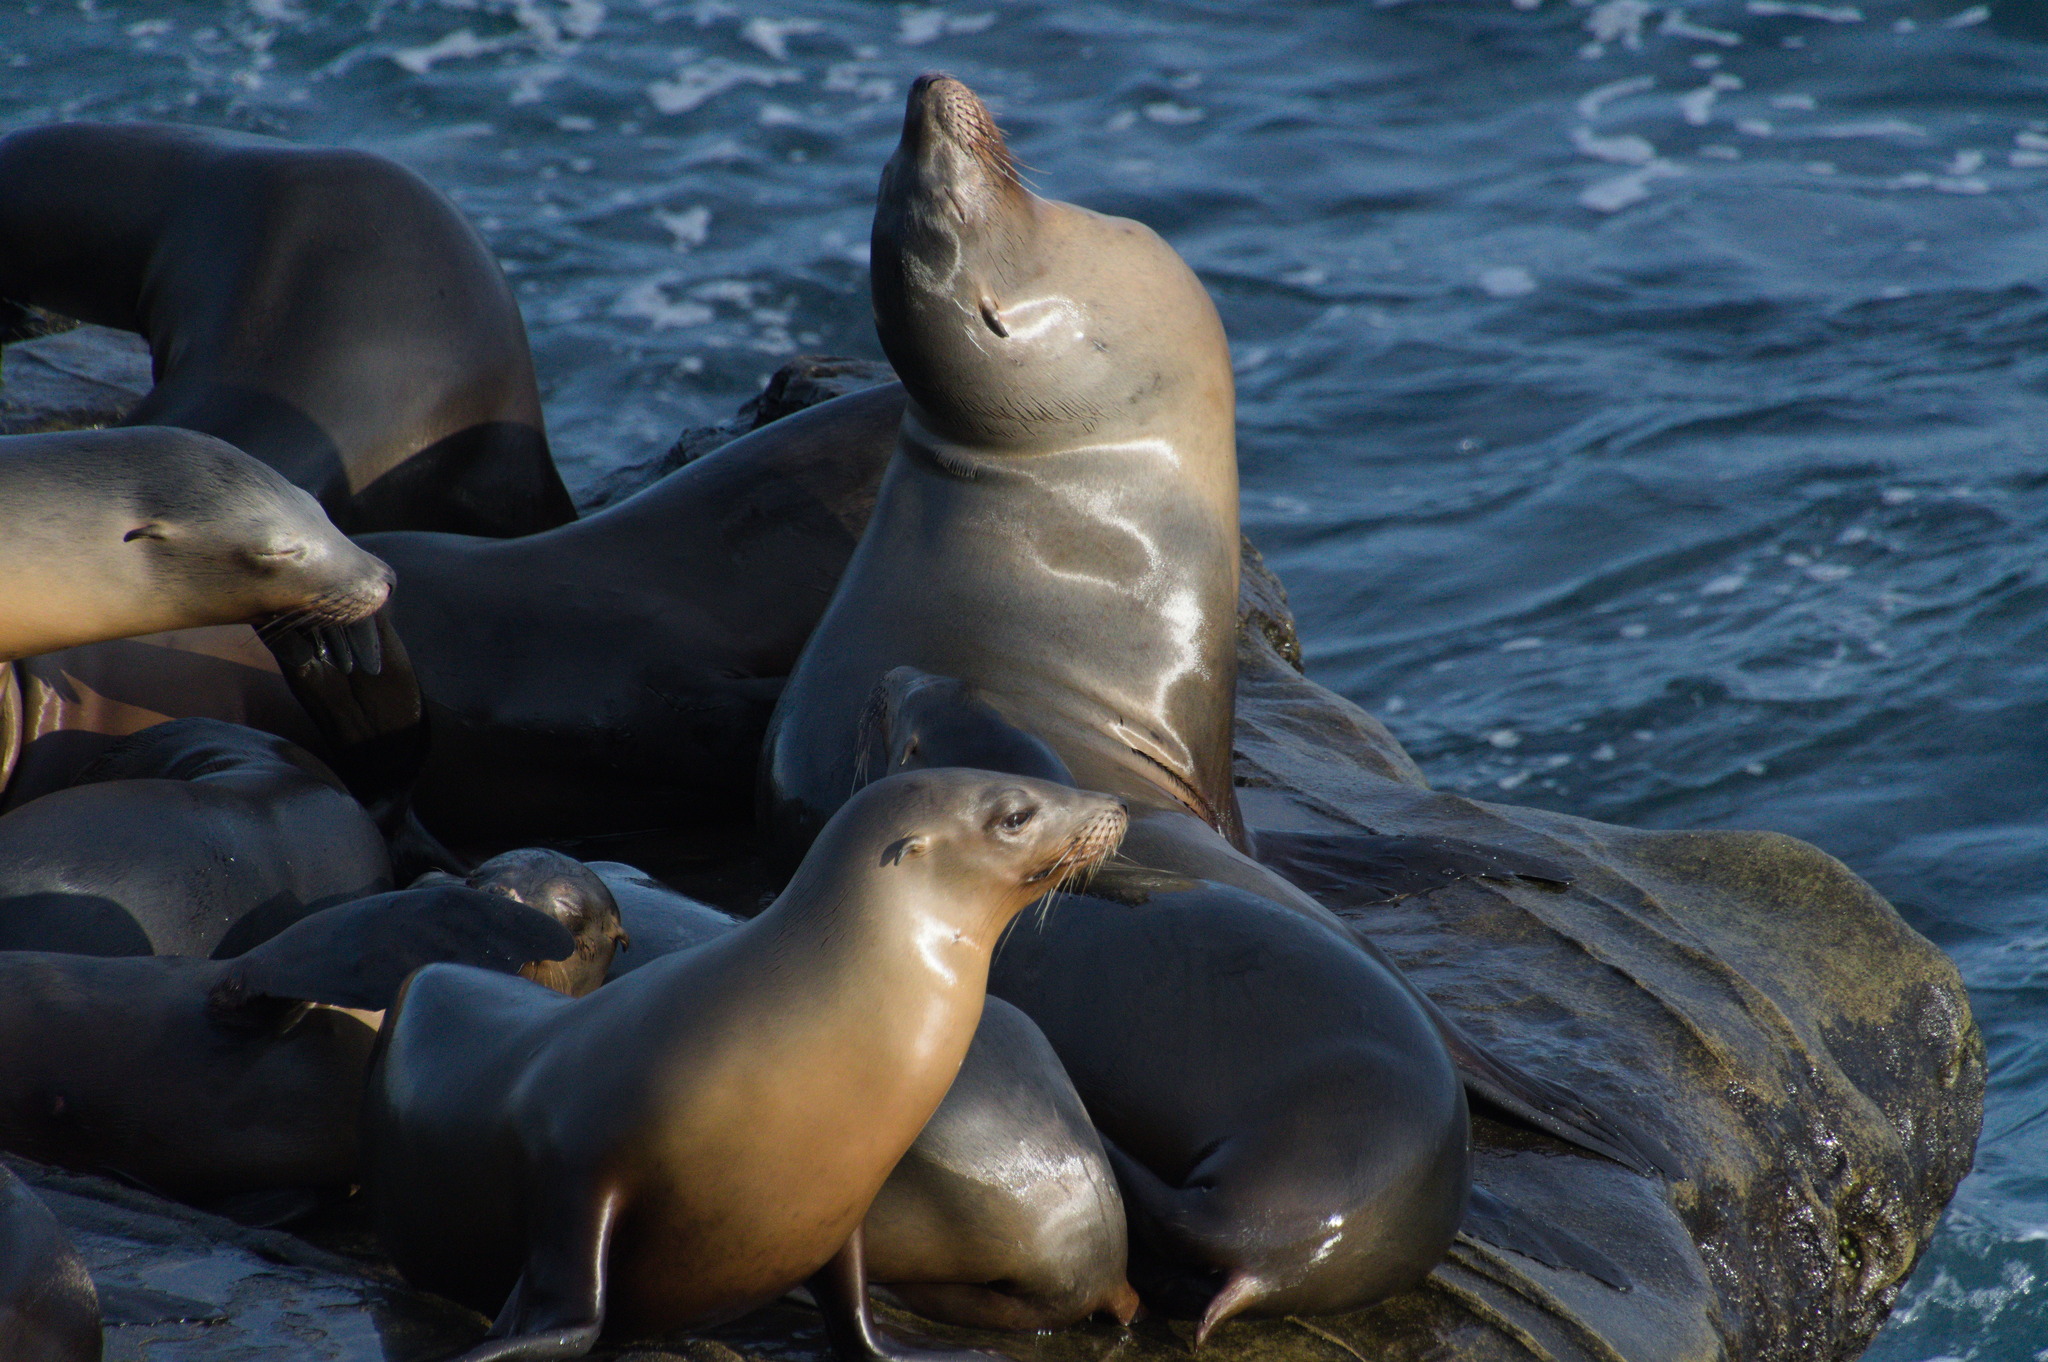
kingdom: Animalia
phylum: Chordata
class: Mammalia
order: Carnivora
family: Otariidae
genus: Zalophus
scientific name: Zalophus californianus
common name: California sea lion
